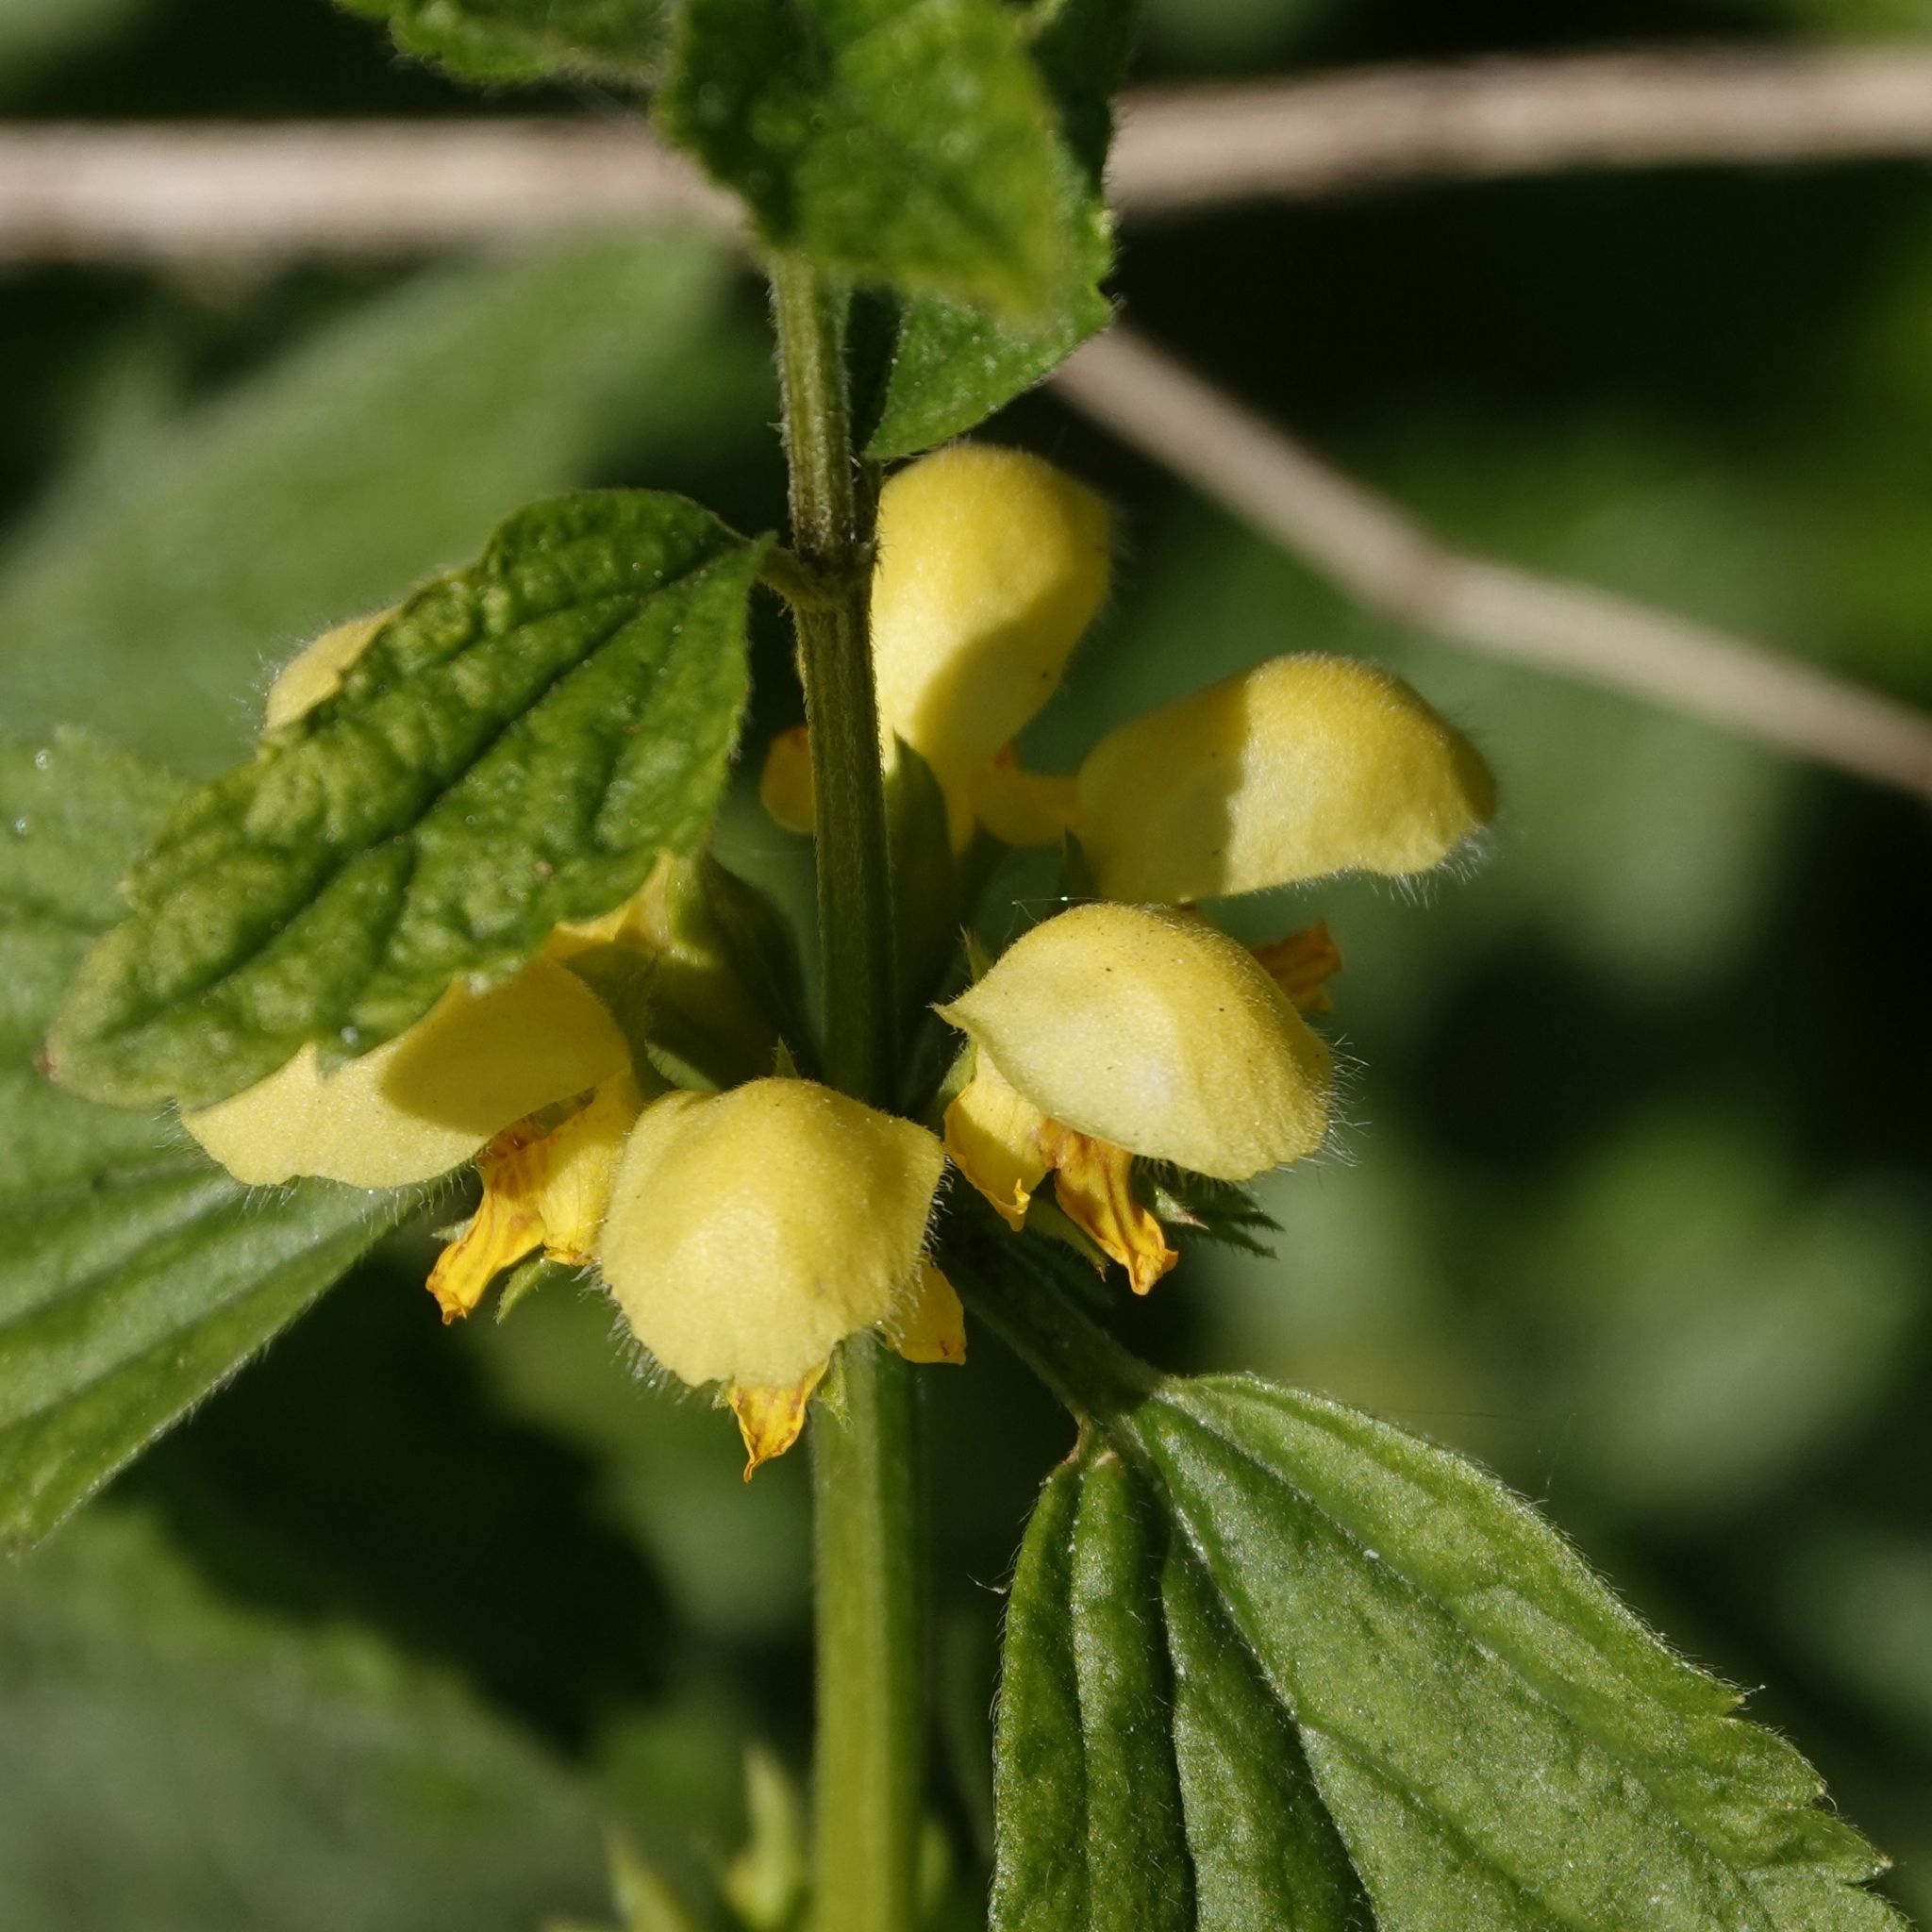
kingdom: Plantae
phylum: Tracheophyta
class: Magnoliopsida
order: Lamiales
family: Lamiaceae
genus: Lamium
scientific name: Lamium galeobdolon
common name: Yellow archangel
